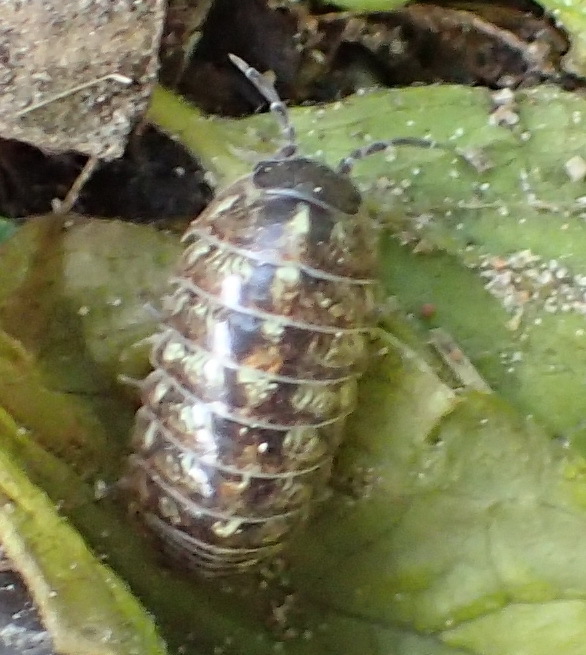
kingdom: Animalia
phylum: Arthropoda
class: Malacostraca
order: Isopoda
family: Armadillidiidae
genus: Armadillidium
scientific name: Armadillidium vulgare
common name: Common pill woodlouse
